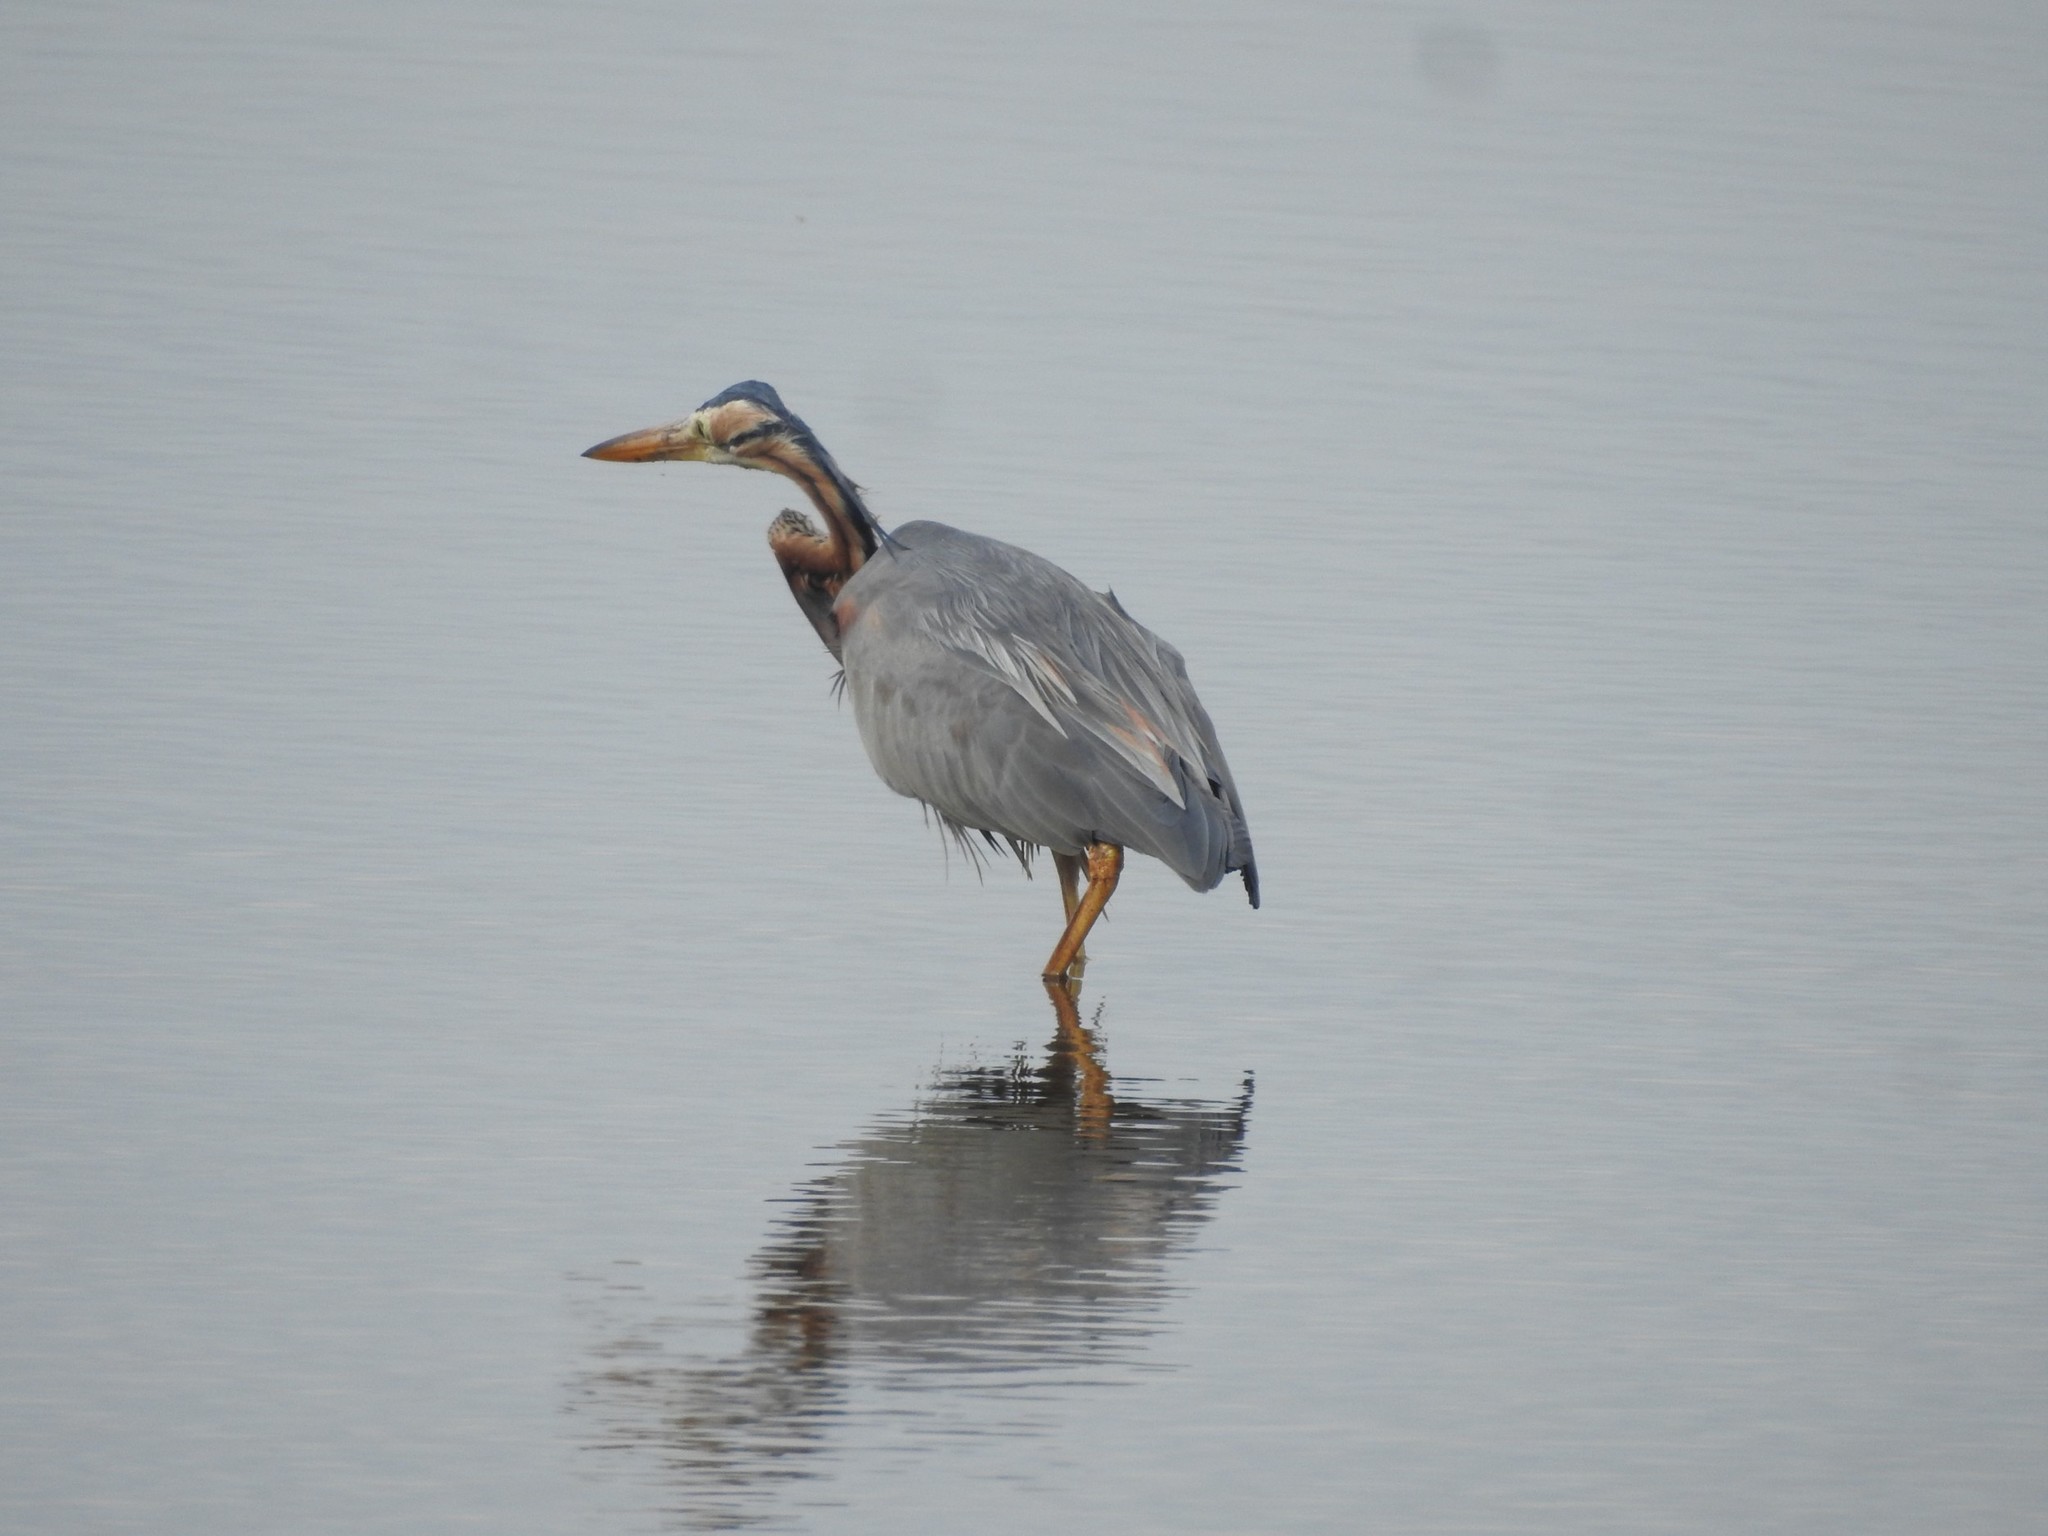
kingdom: Animalia
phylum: Chordata
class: Aves
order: Pelecaniformes
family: Ardeidae
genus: Ardea
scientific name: Ardea purpurea
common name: Purple heron
